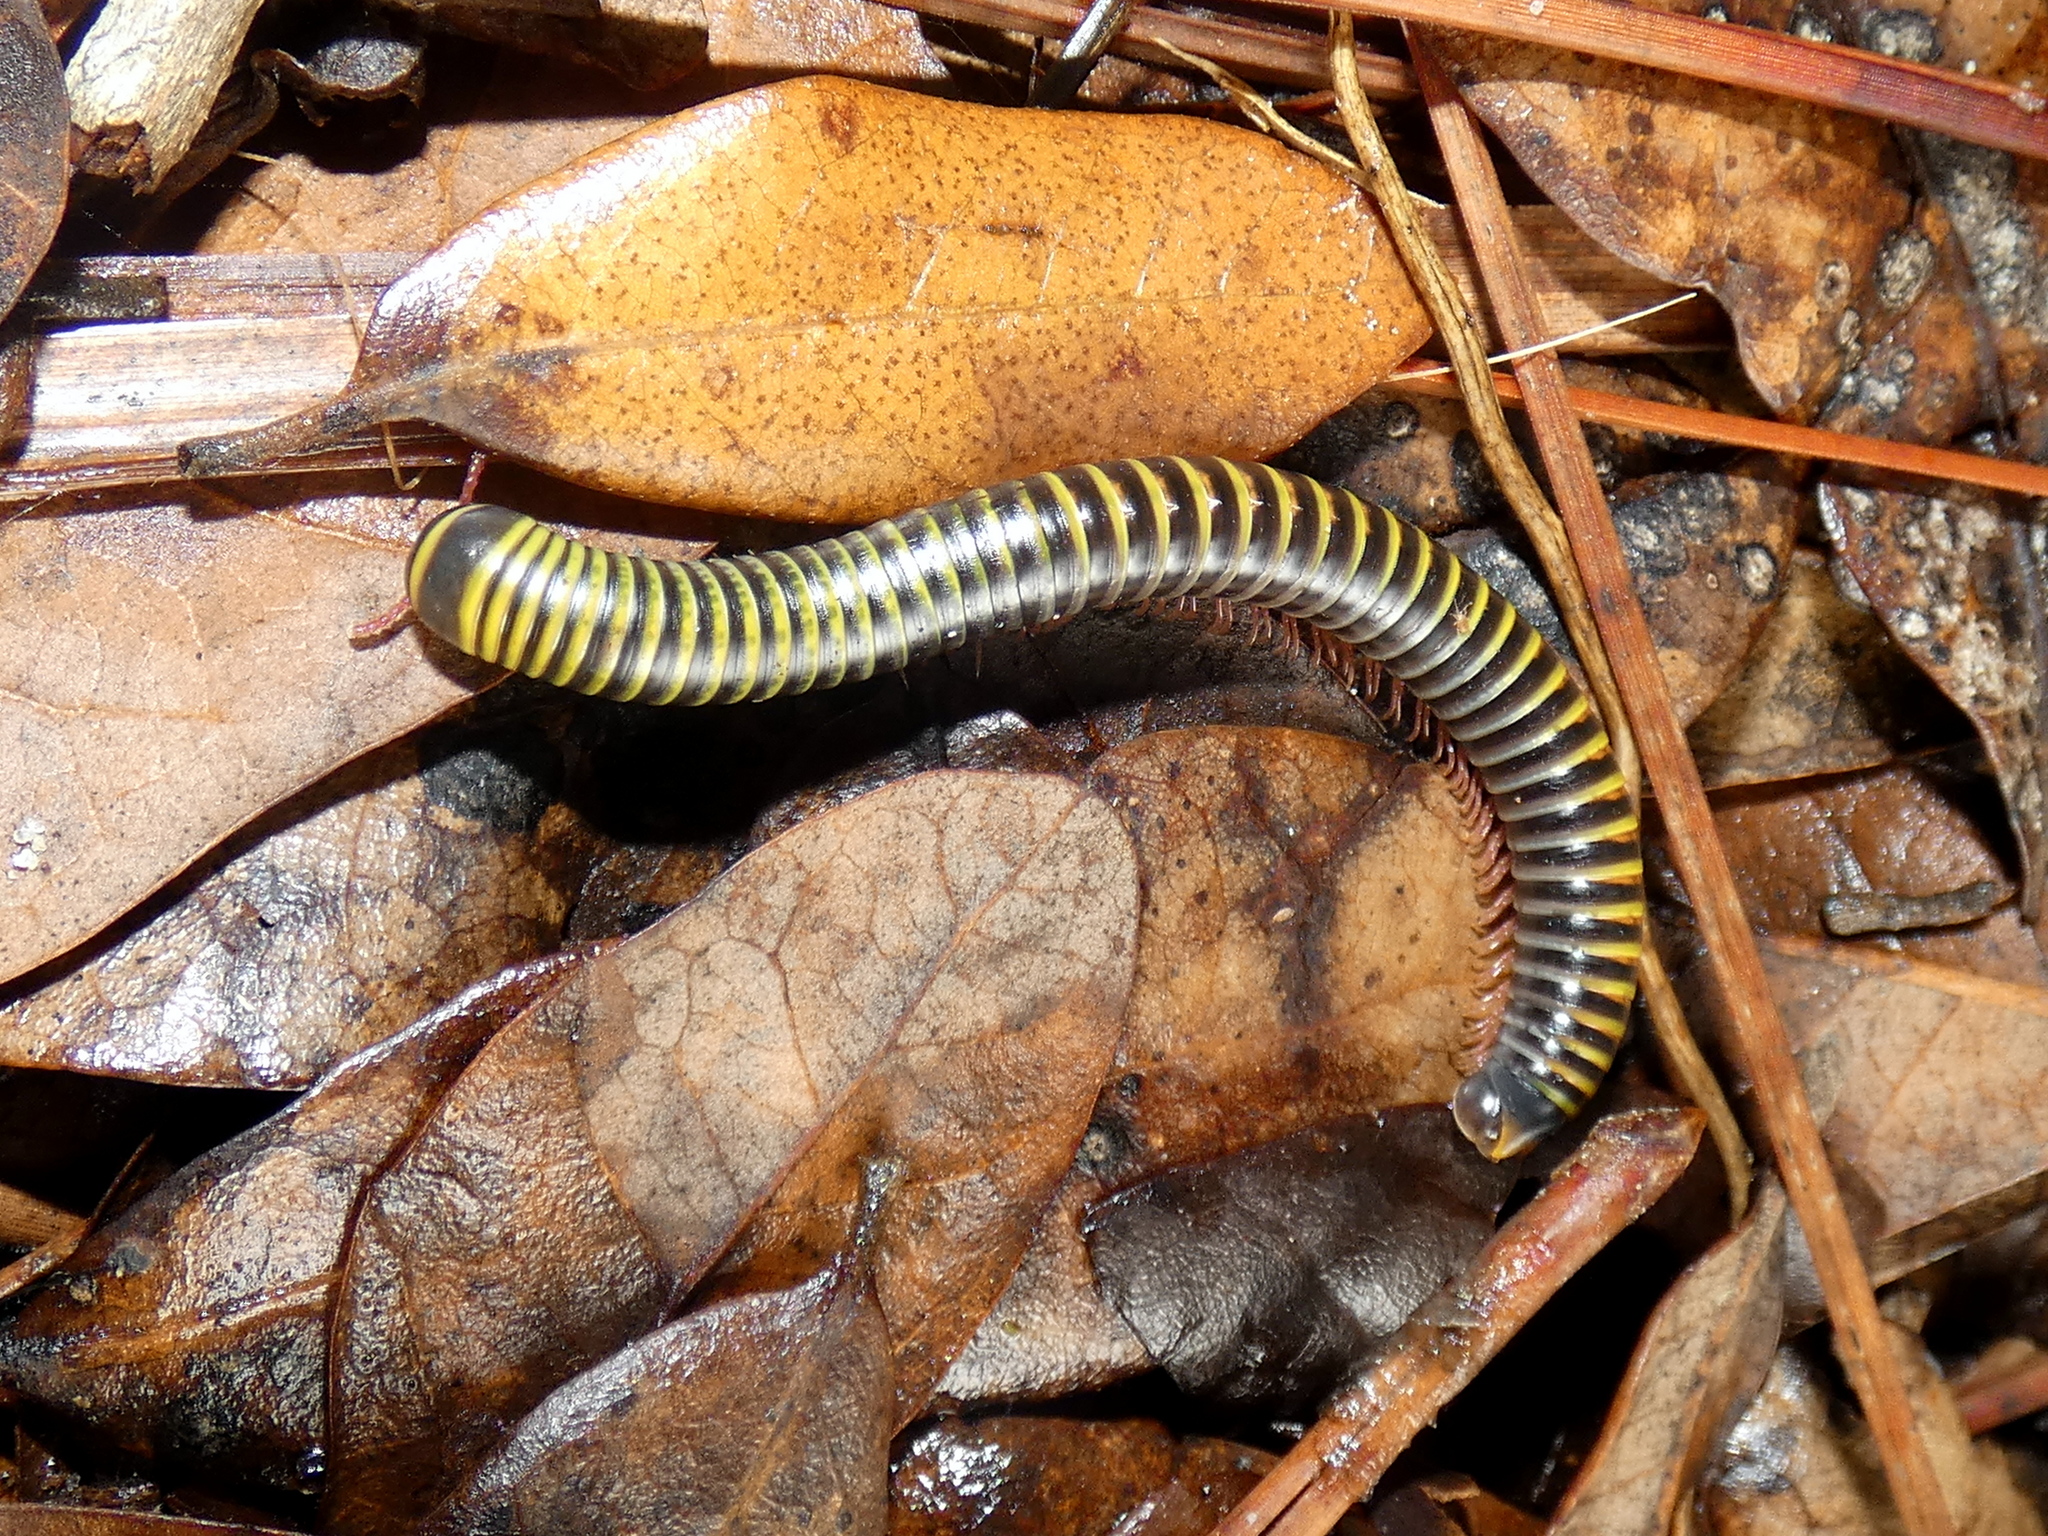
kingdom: Animalia
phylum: Arthropoda
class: Diplopoda
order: Spirobolida
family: Rhinocricidae
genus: Anadenobolus
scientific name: Anadenobolus monilicornis
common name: Caribbean millipede
